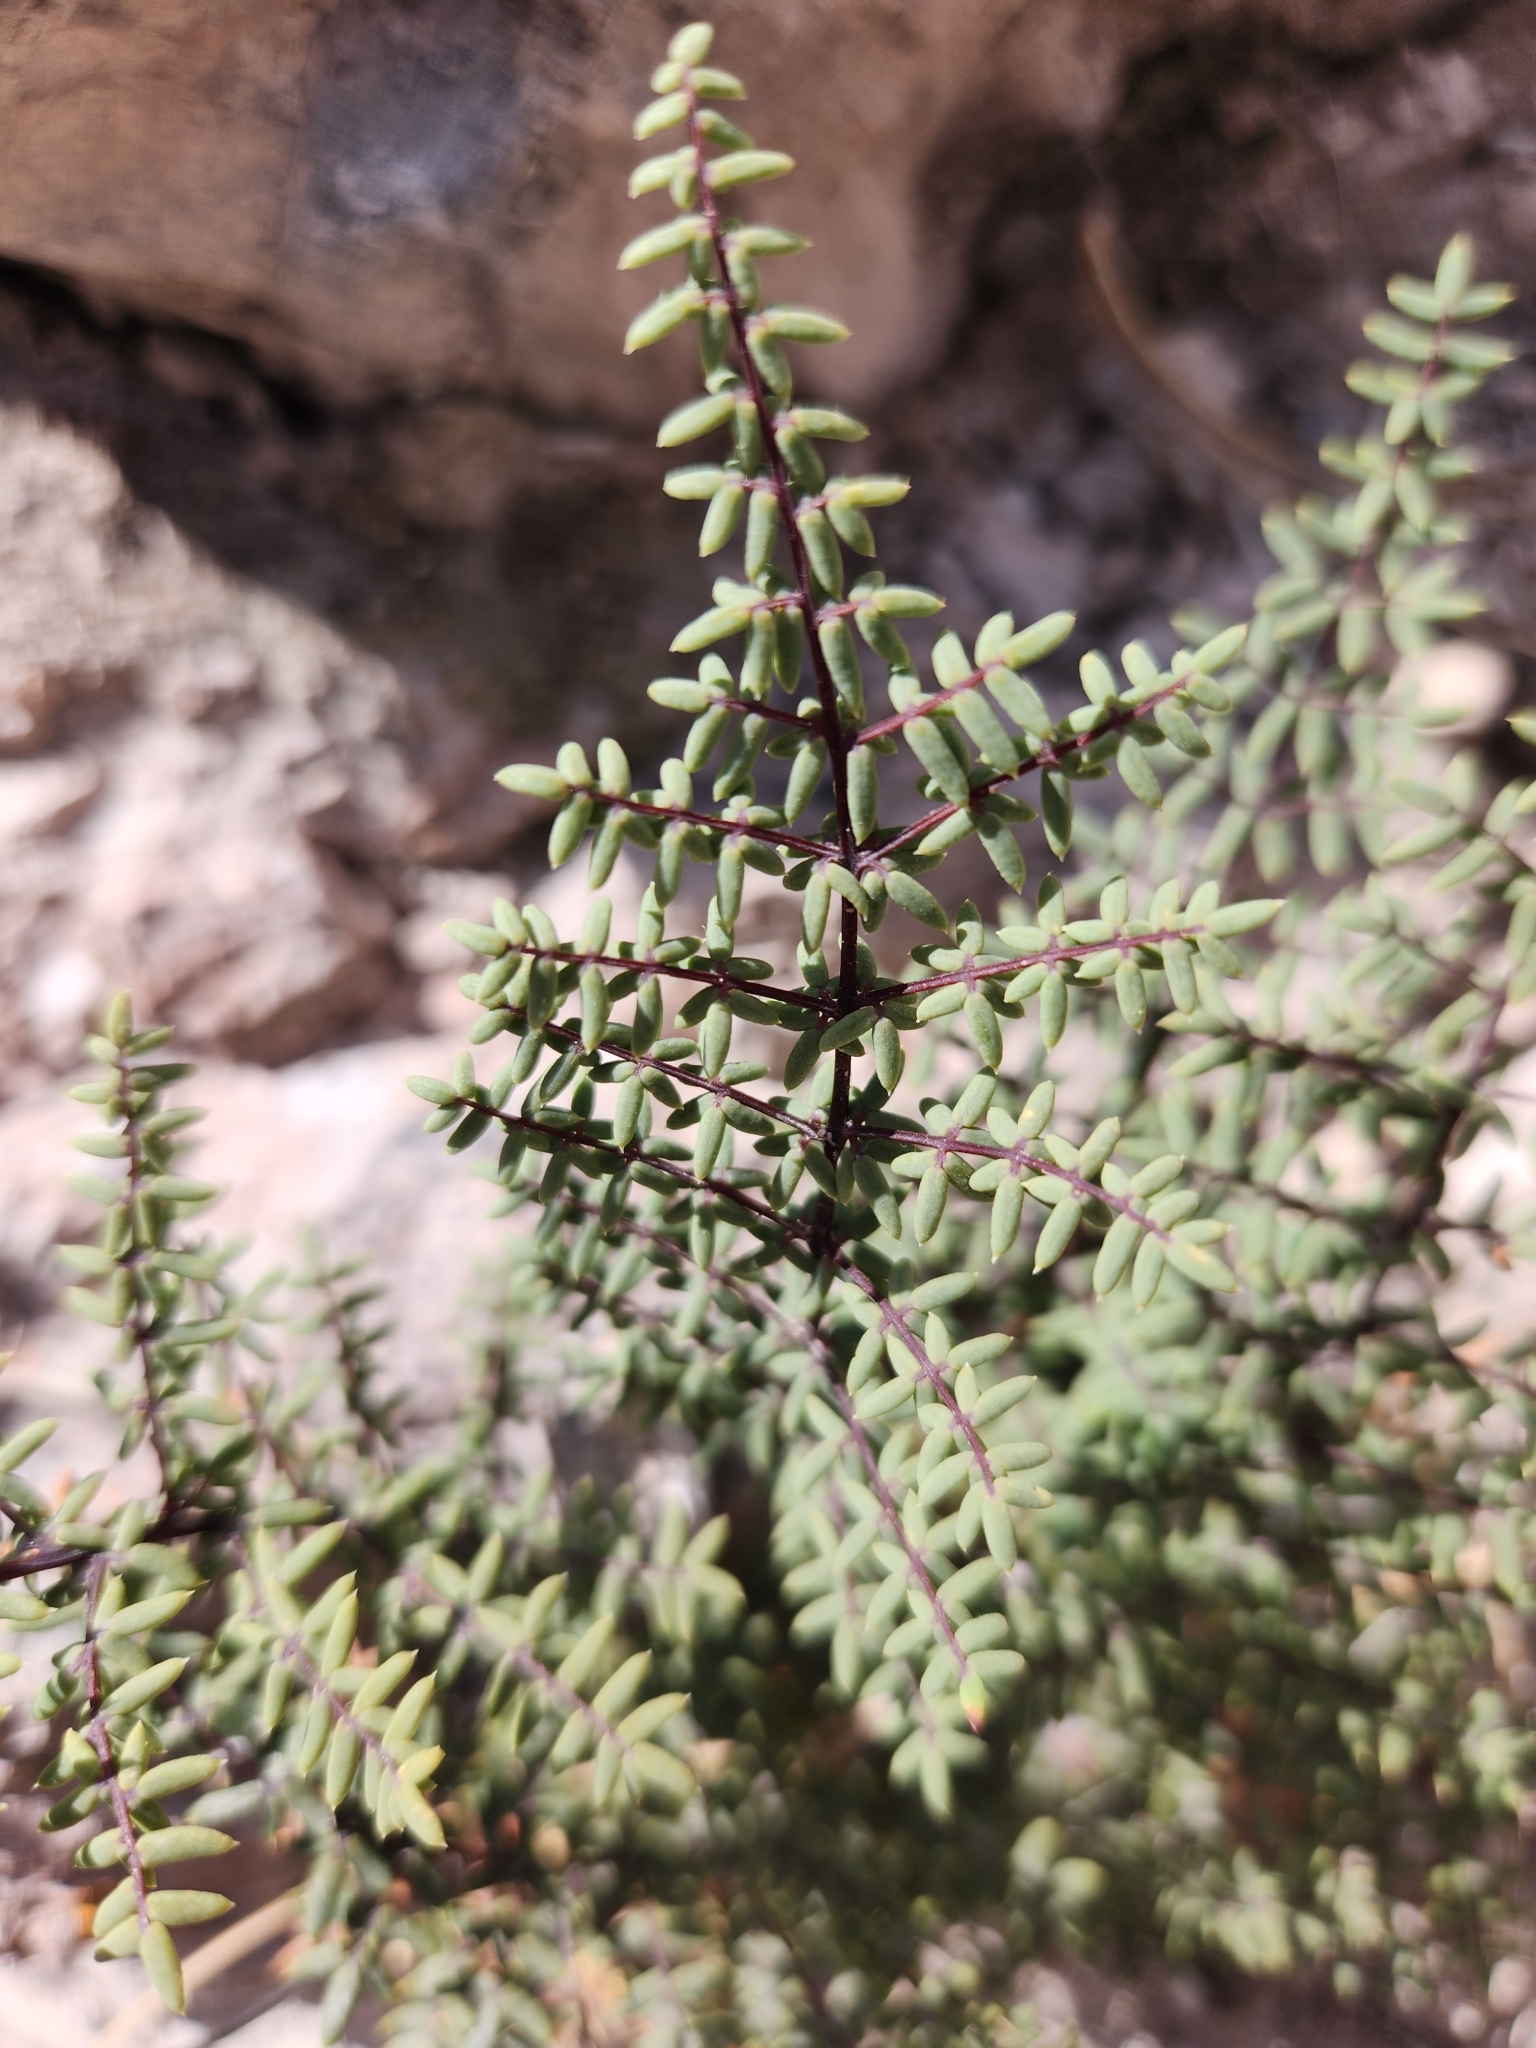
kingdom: Plantae
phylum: Tracheophyta
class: Polypodiopsida
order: Polypodiales
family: Pteridaceae
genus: Pellaea
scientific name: Pellaea mucronata
